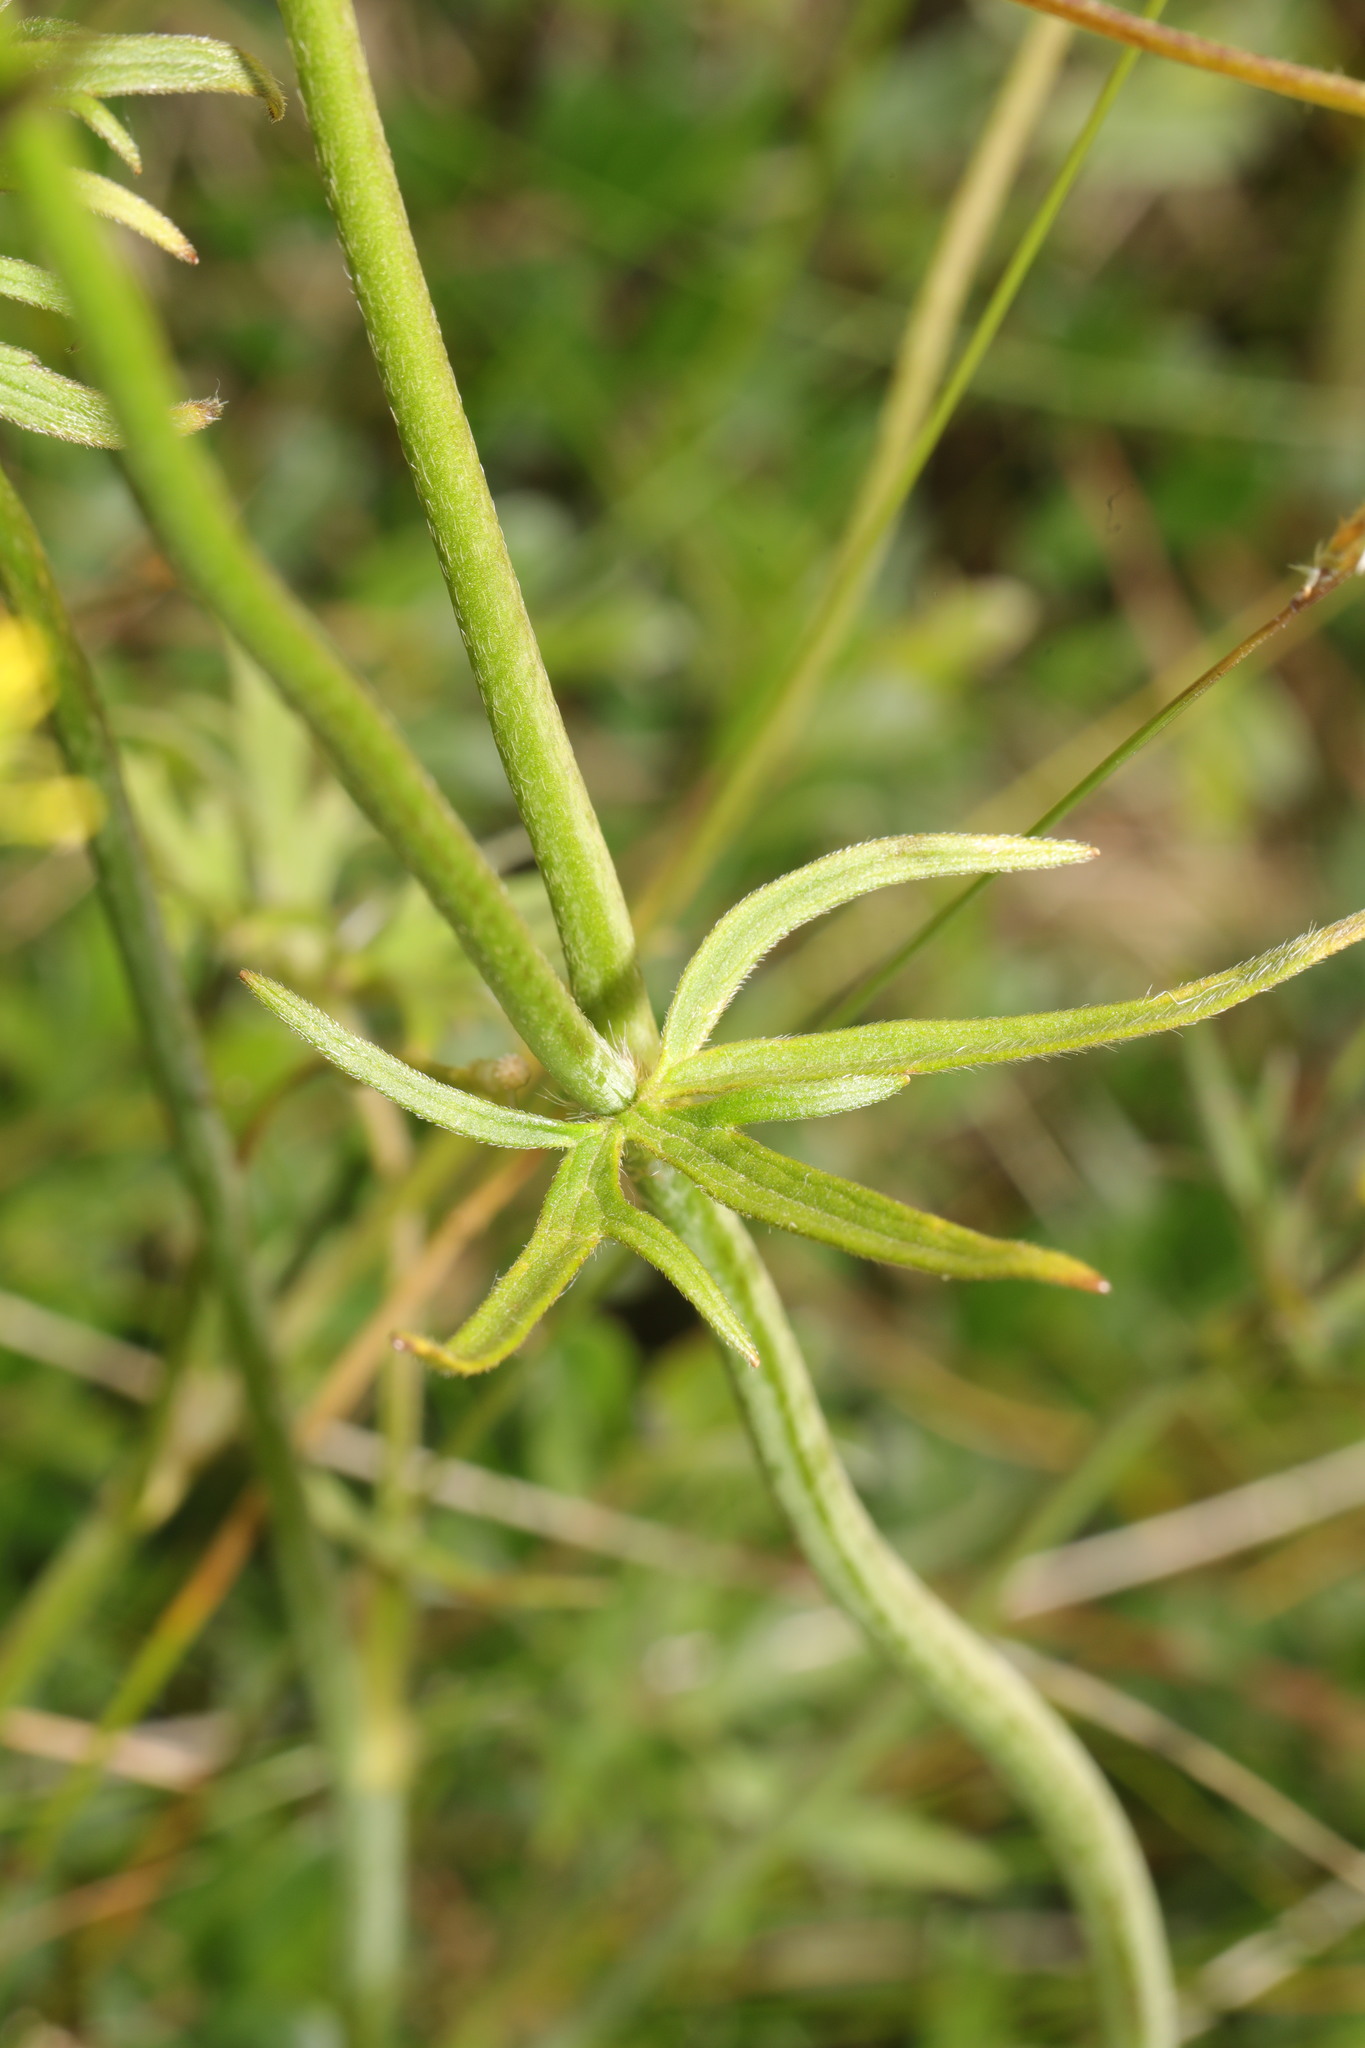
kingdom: Plantae
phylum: Tracheophyta
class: Magnoliopsida
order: Ranunculales
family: Ranunculaceae
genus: Ranunculus
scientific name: Ranunculus acris
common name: Meadow buttercup
